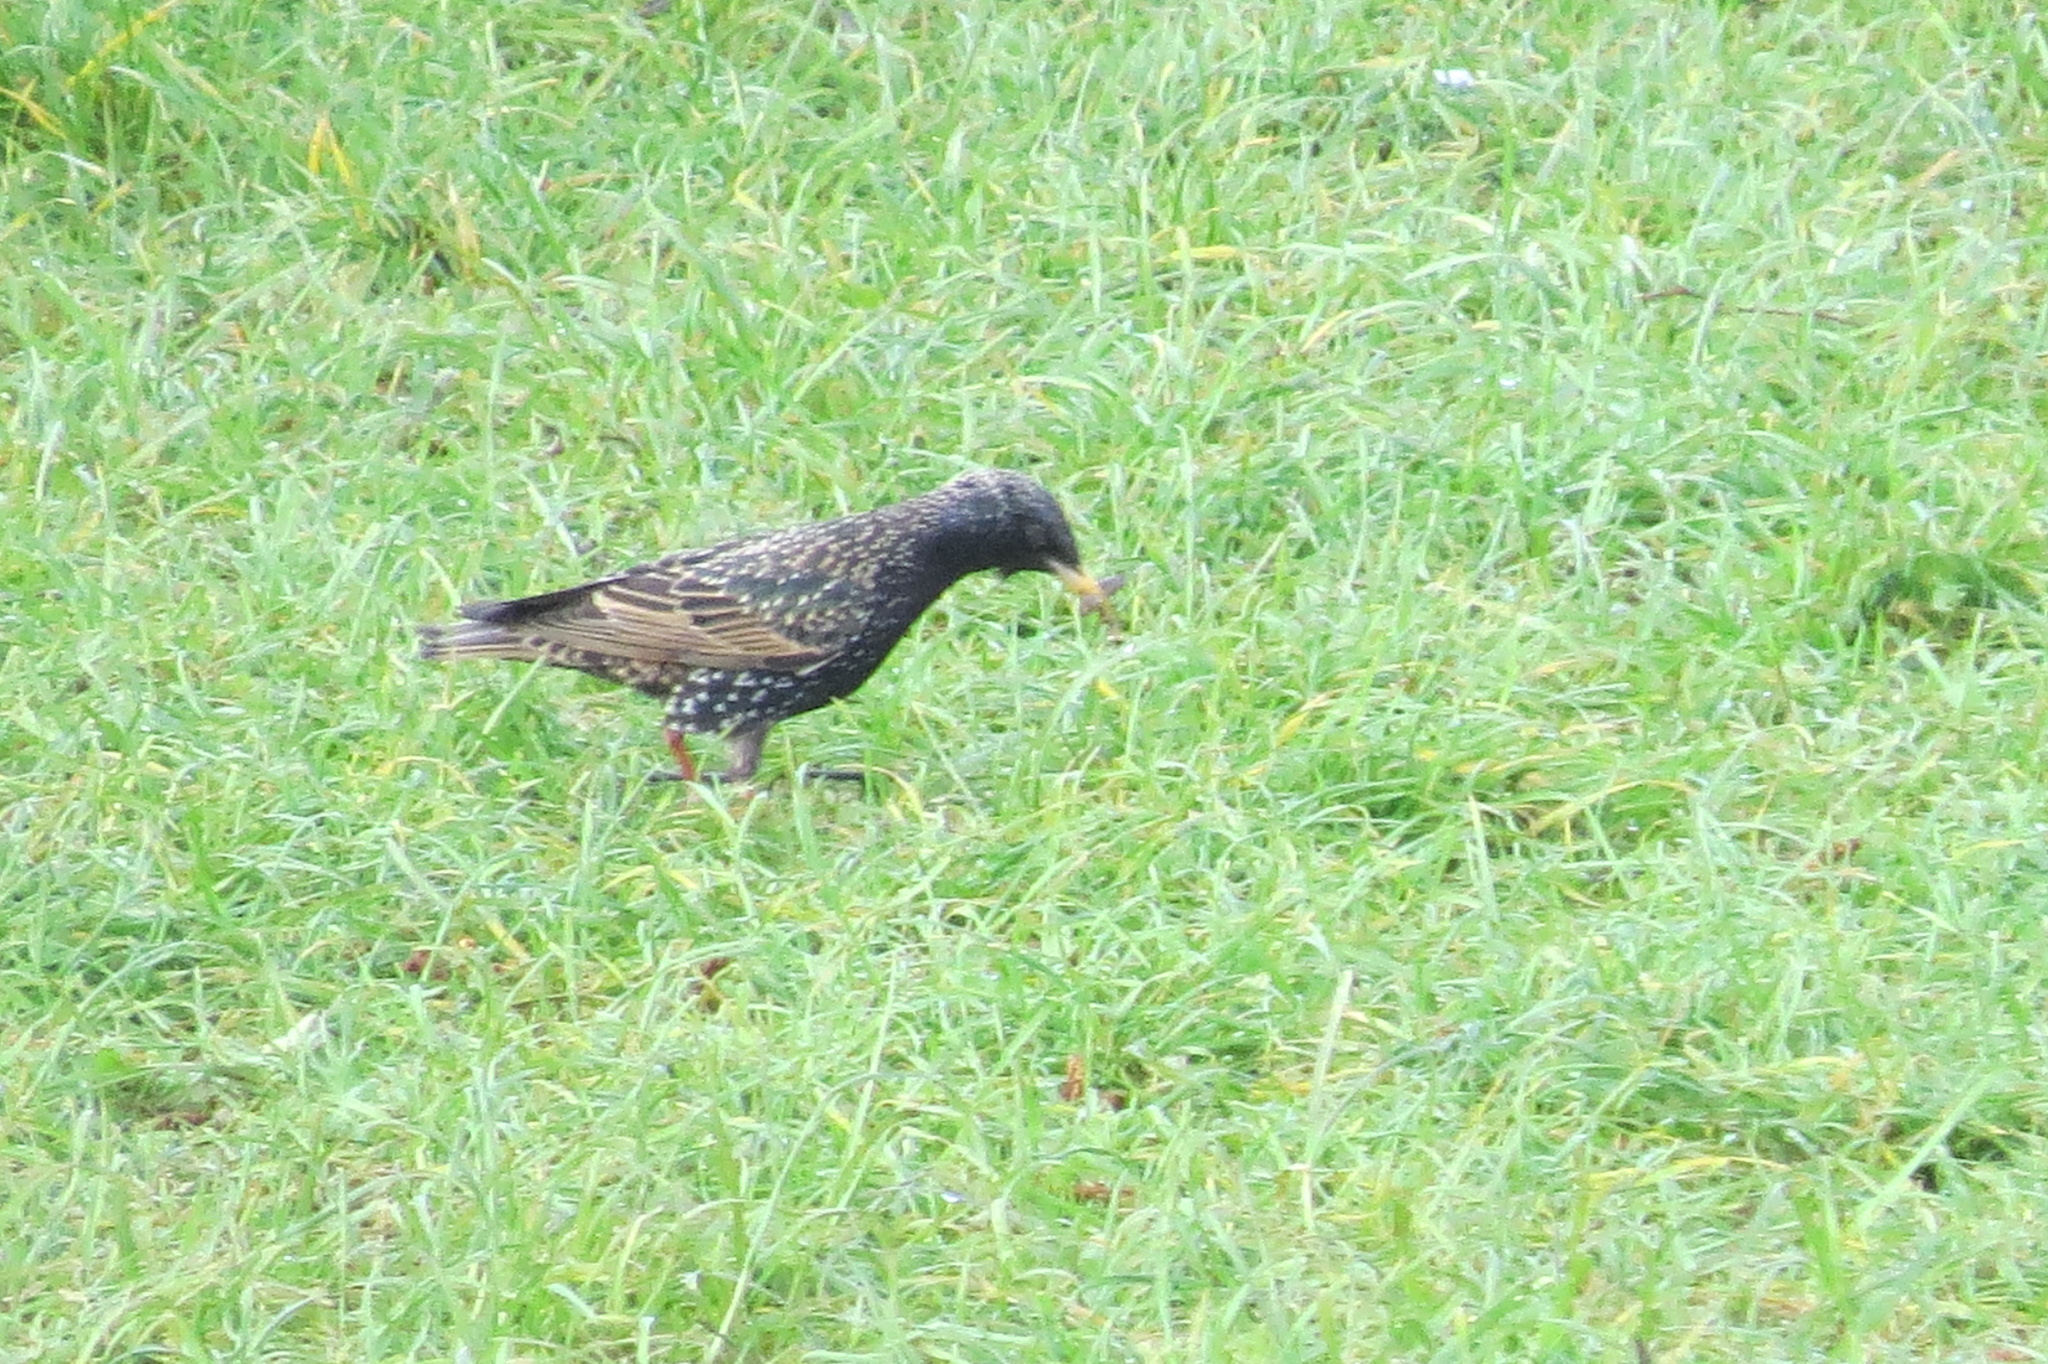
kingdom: Animalia
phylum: Chordata
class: Aves
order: Passeriformes
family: Sturnidae
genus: Sturnus
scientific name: Sturnus vulgaris
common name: Common starling
